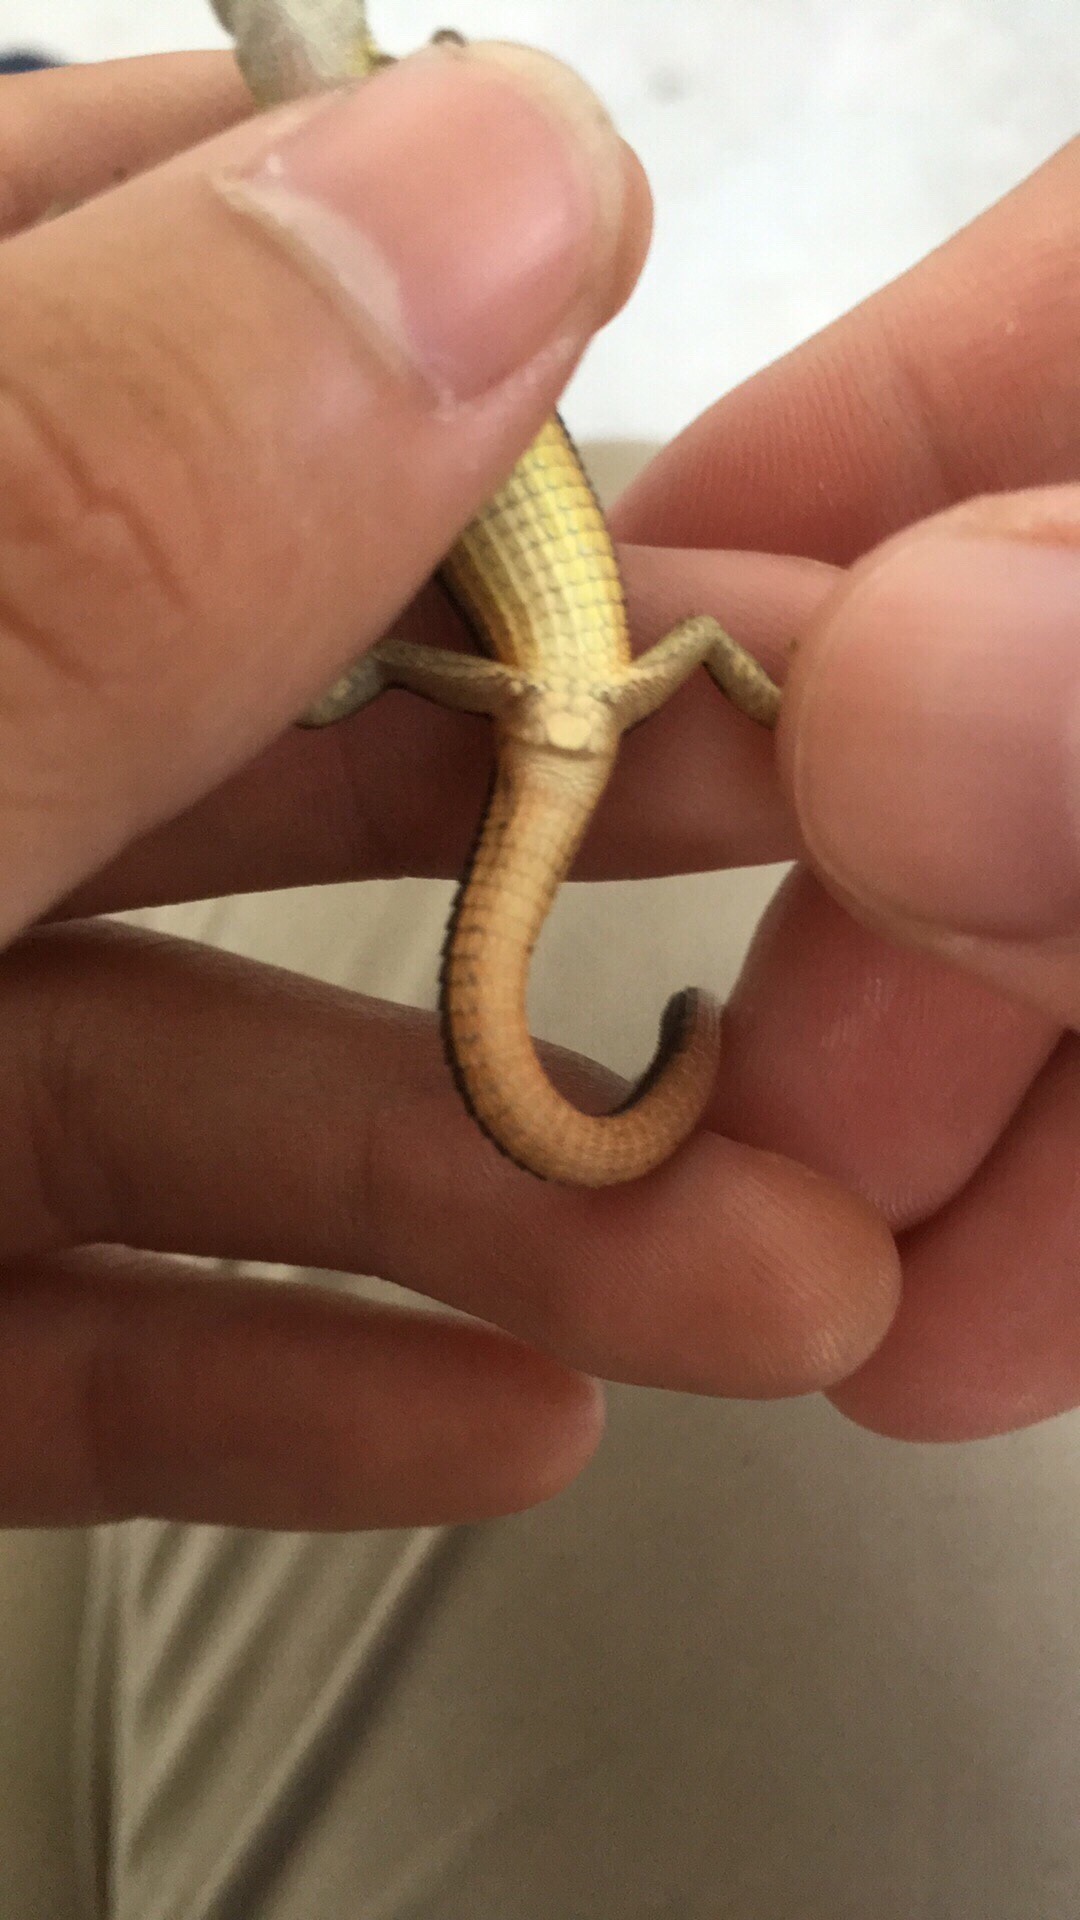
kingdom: Animalia
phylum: Chordata
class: Squamata
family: Lacertidae
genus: Takydromus
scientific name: Takydromus formosanus
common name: Formosa grass lizard
